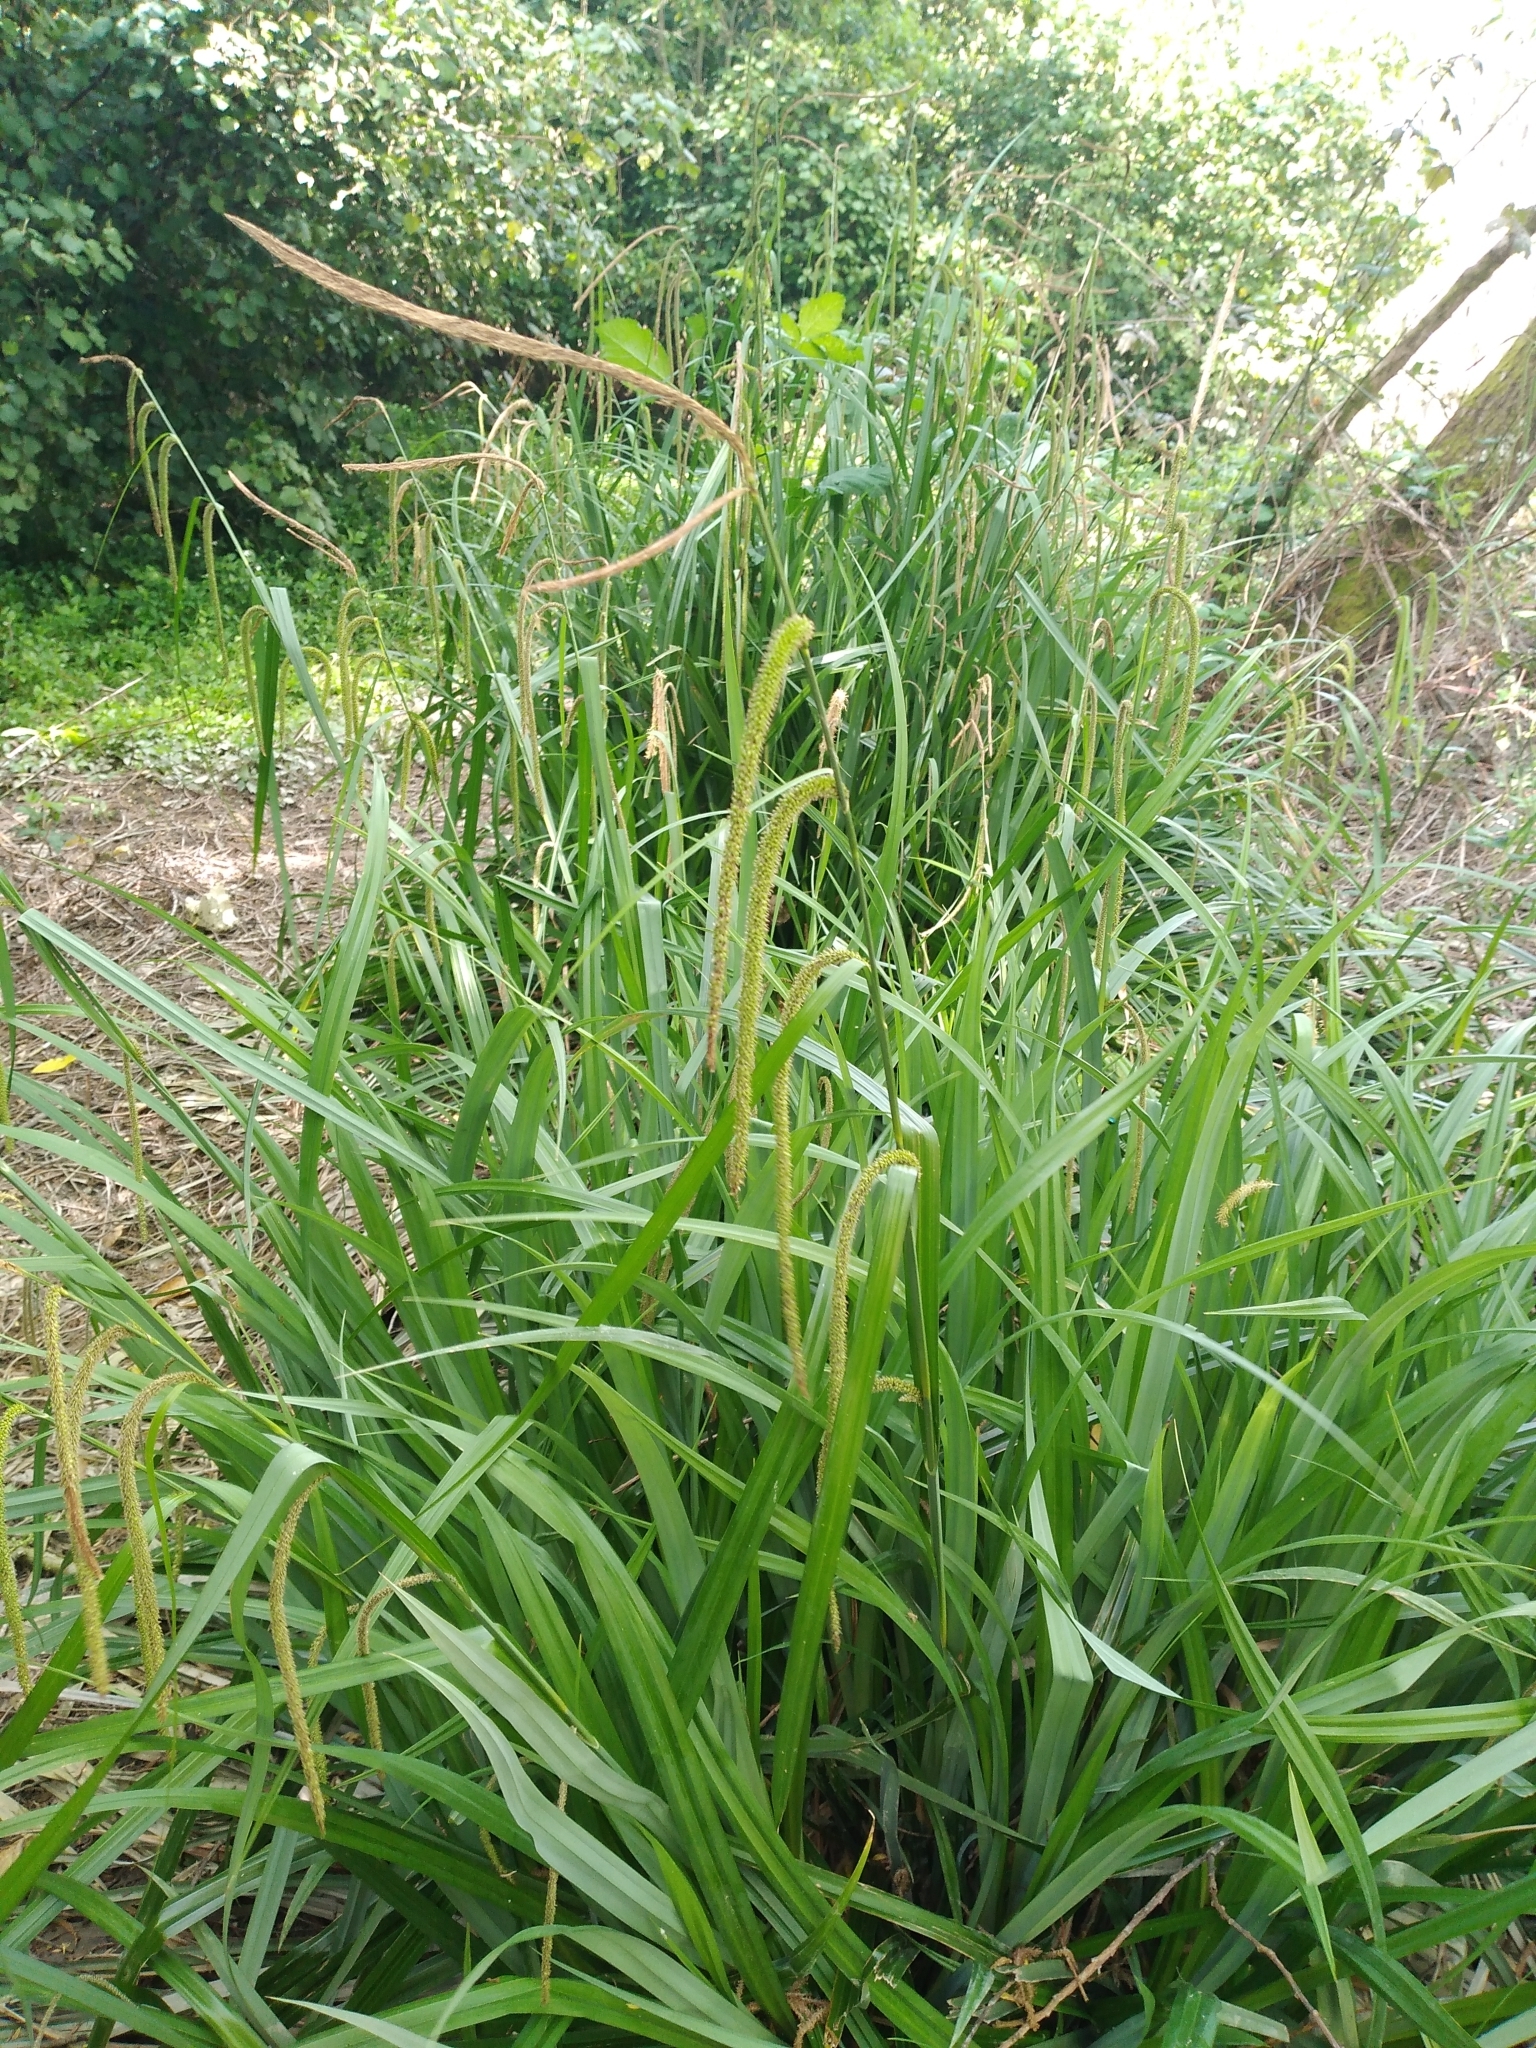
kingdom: Plantae
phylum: Tracheophyta
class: Liliopsida
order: Poales
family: Cyperaceae
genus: Carex
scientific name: Carex pendula
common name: Pendulous sedge
